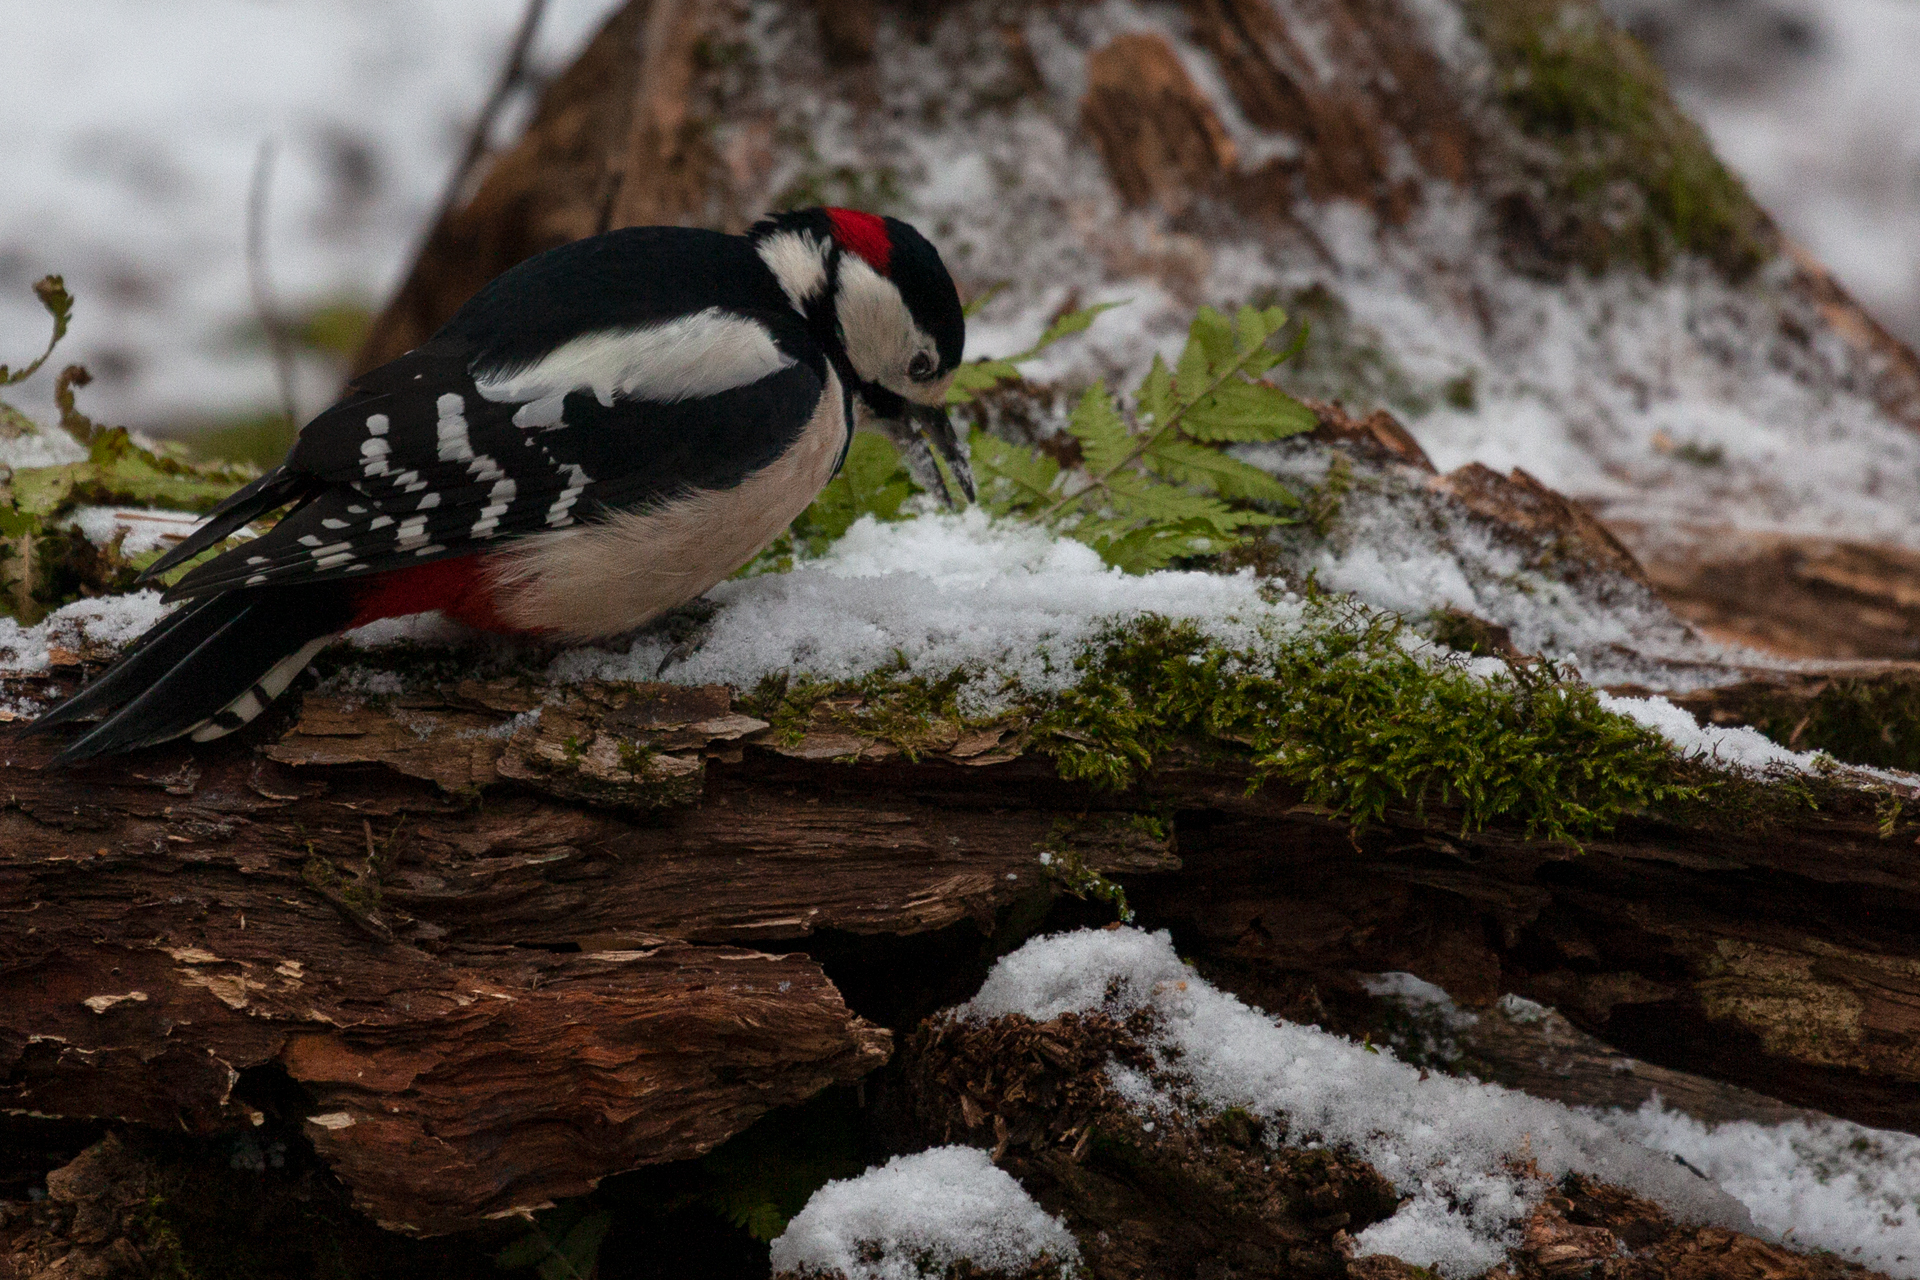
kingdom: Animalia
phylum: Chordata
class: Aves
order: Piciformes
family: Picidae
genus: Dendrocopos
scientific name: Dendrocopos major
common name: Great spotted woodpecker
